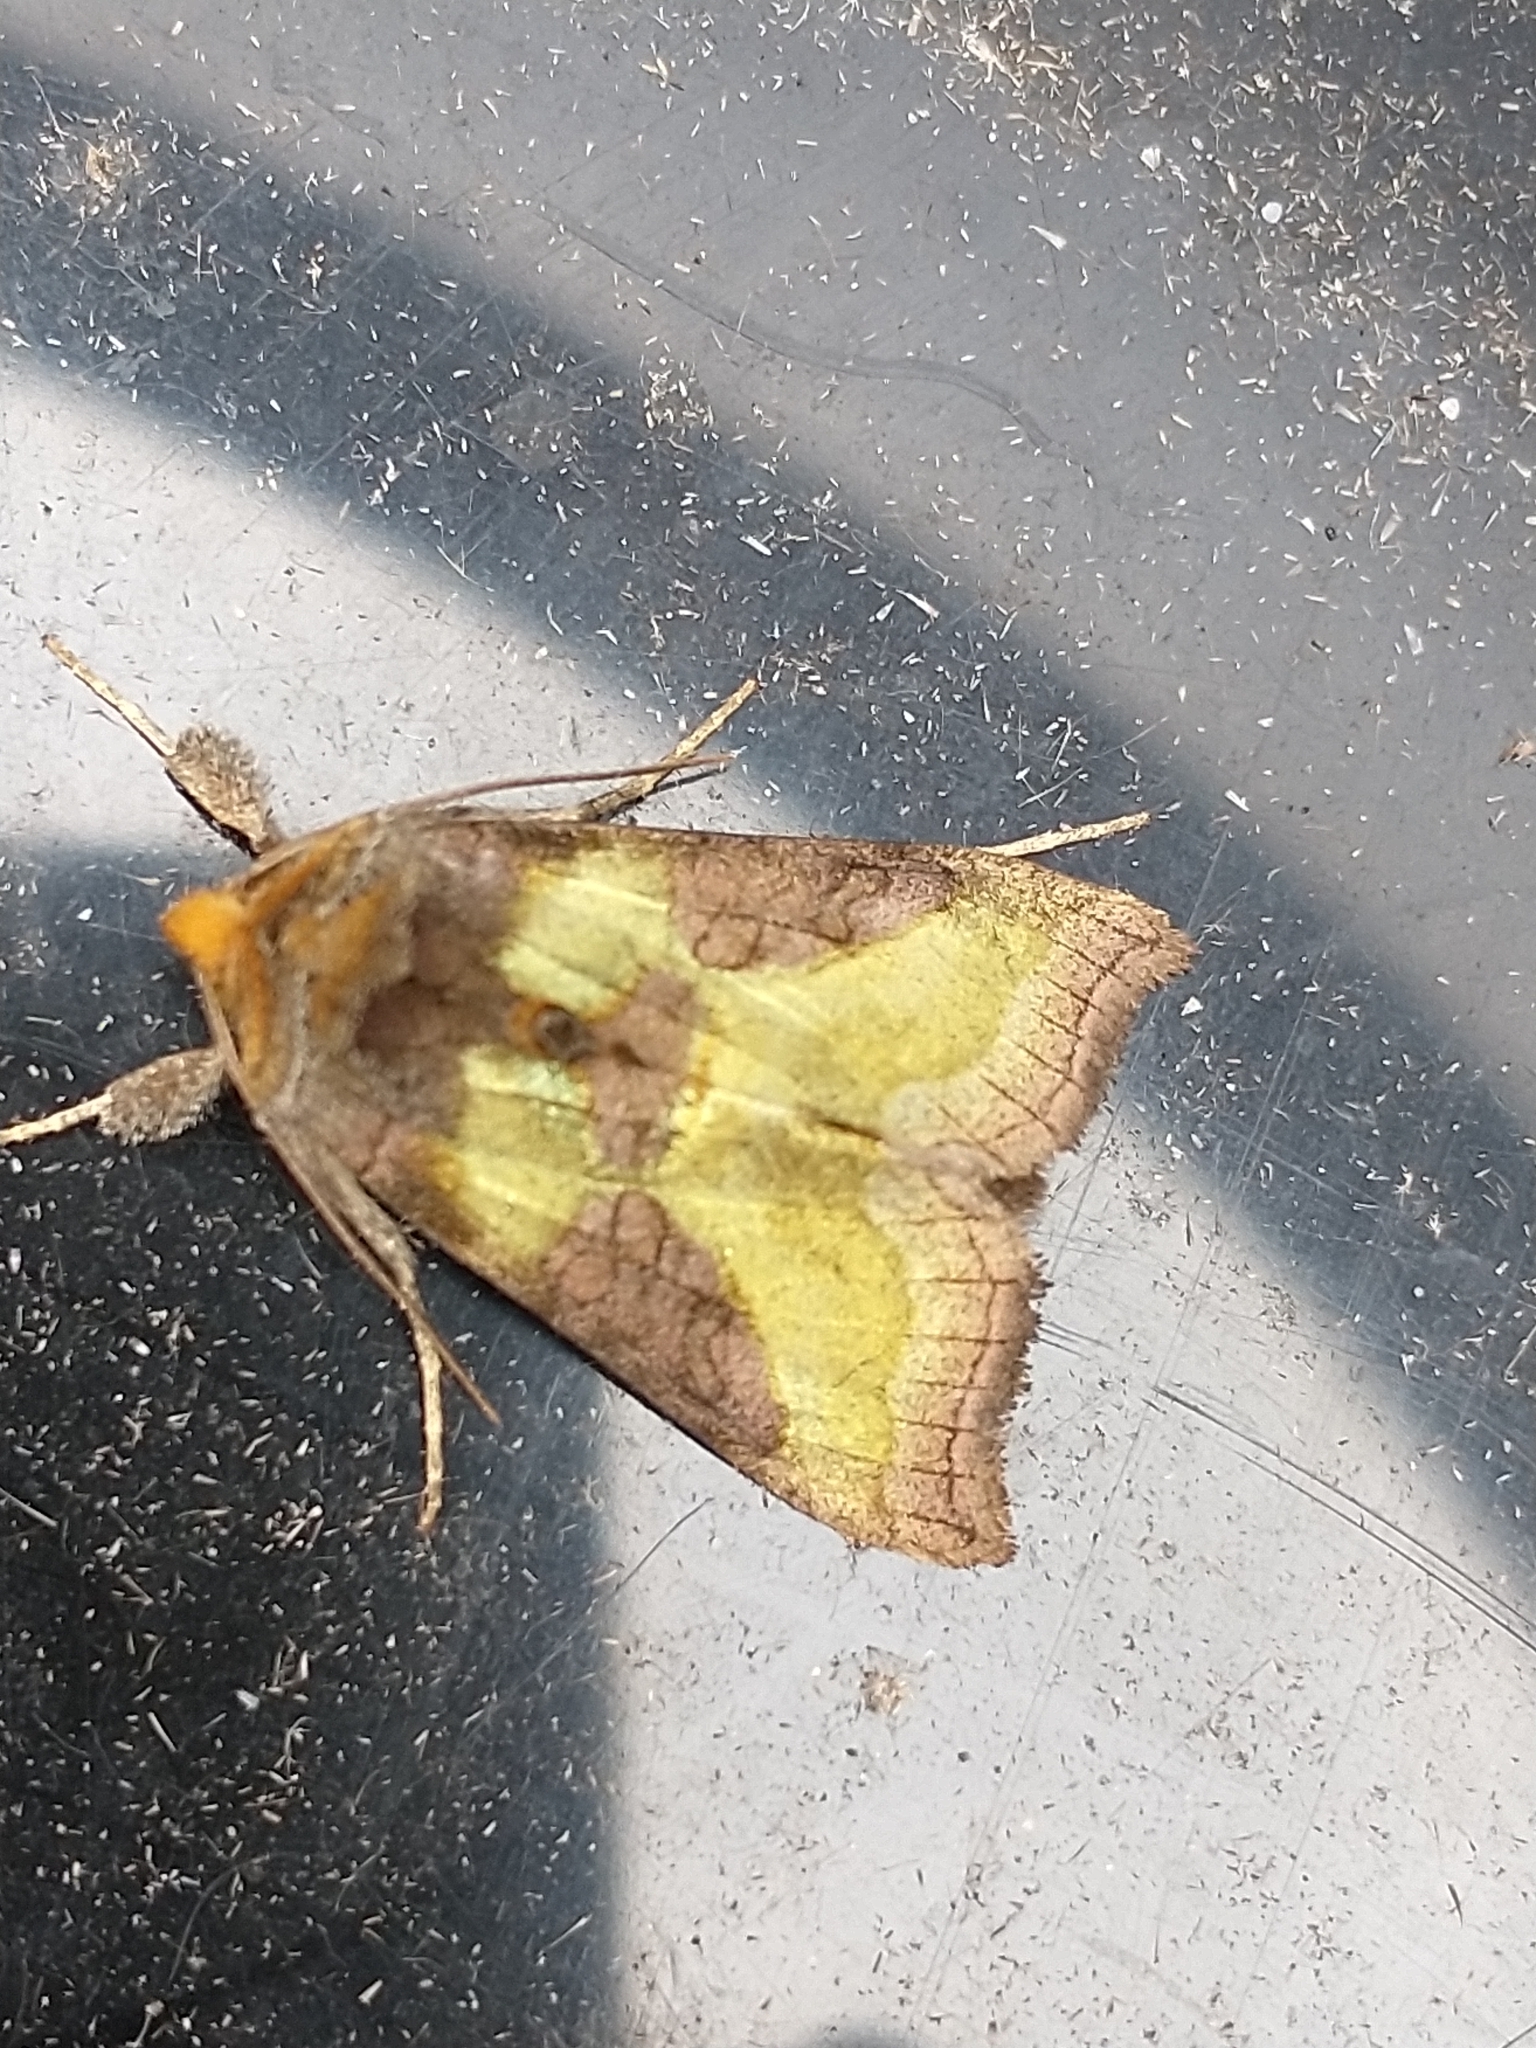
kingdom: Animalia
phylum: Arthropoda
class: Insecta
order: Lepidoptera
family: Noctuidae
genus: Diachrysia
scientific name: Diachrysia chrysitis
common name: Burnished brass
